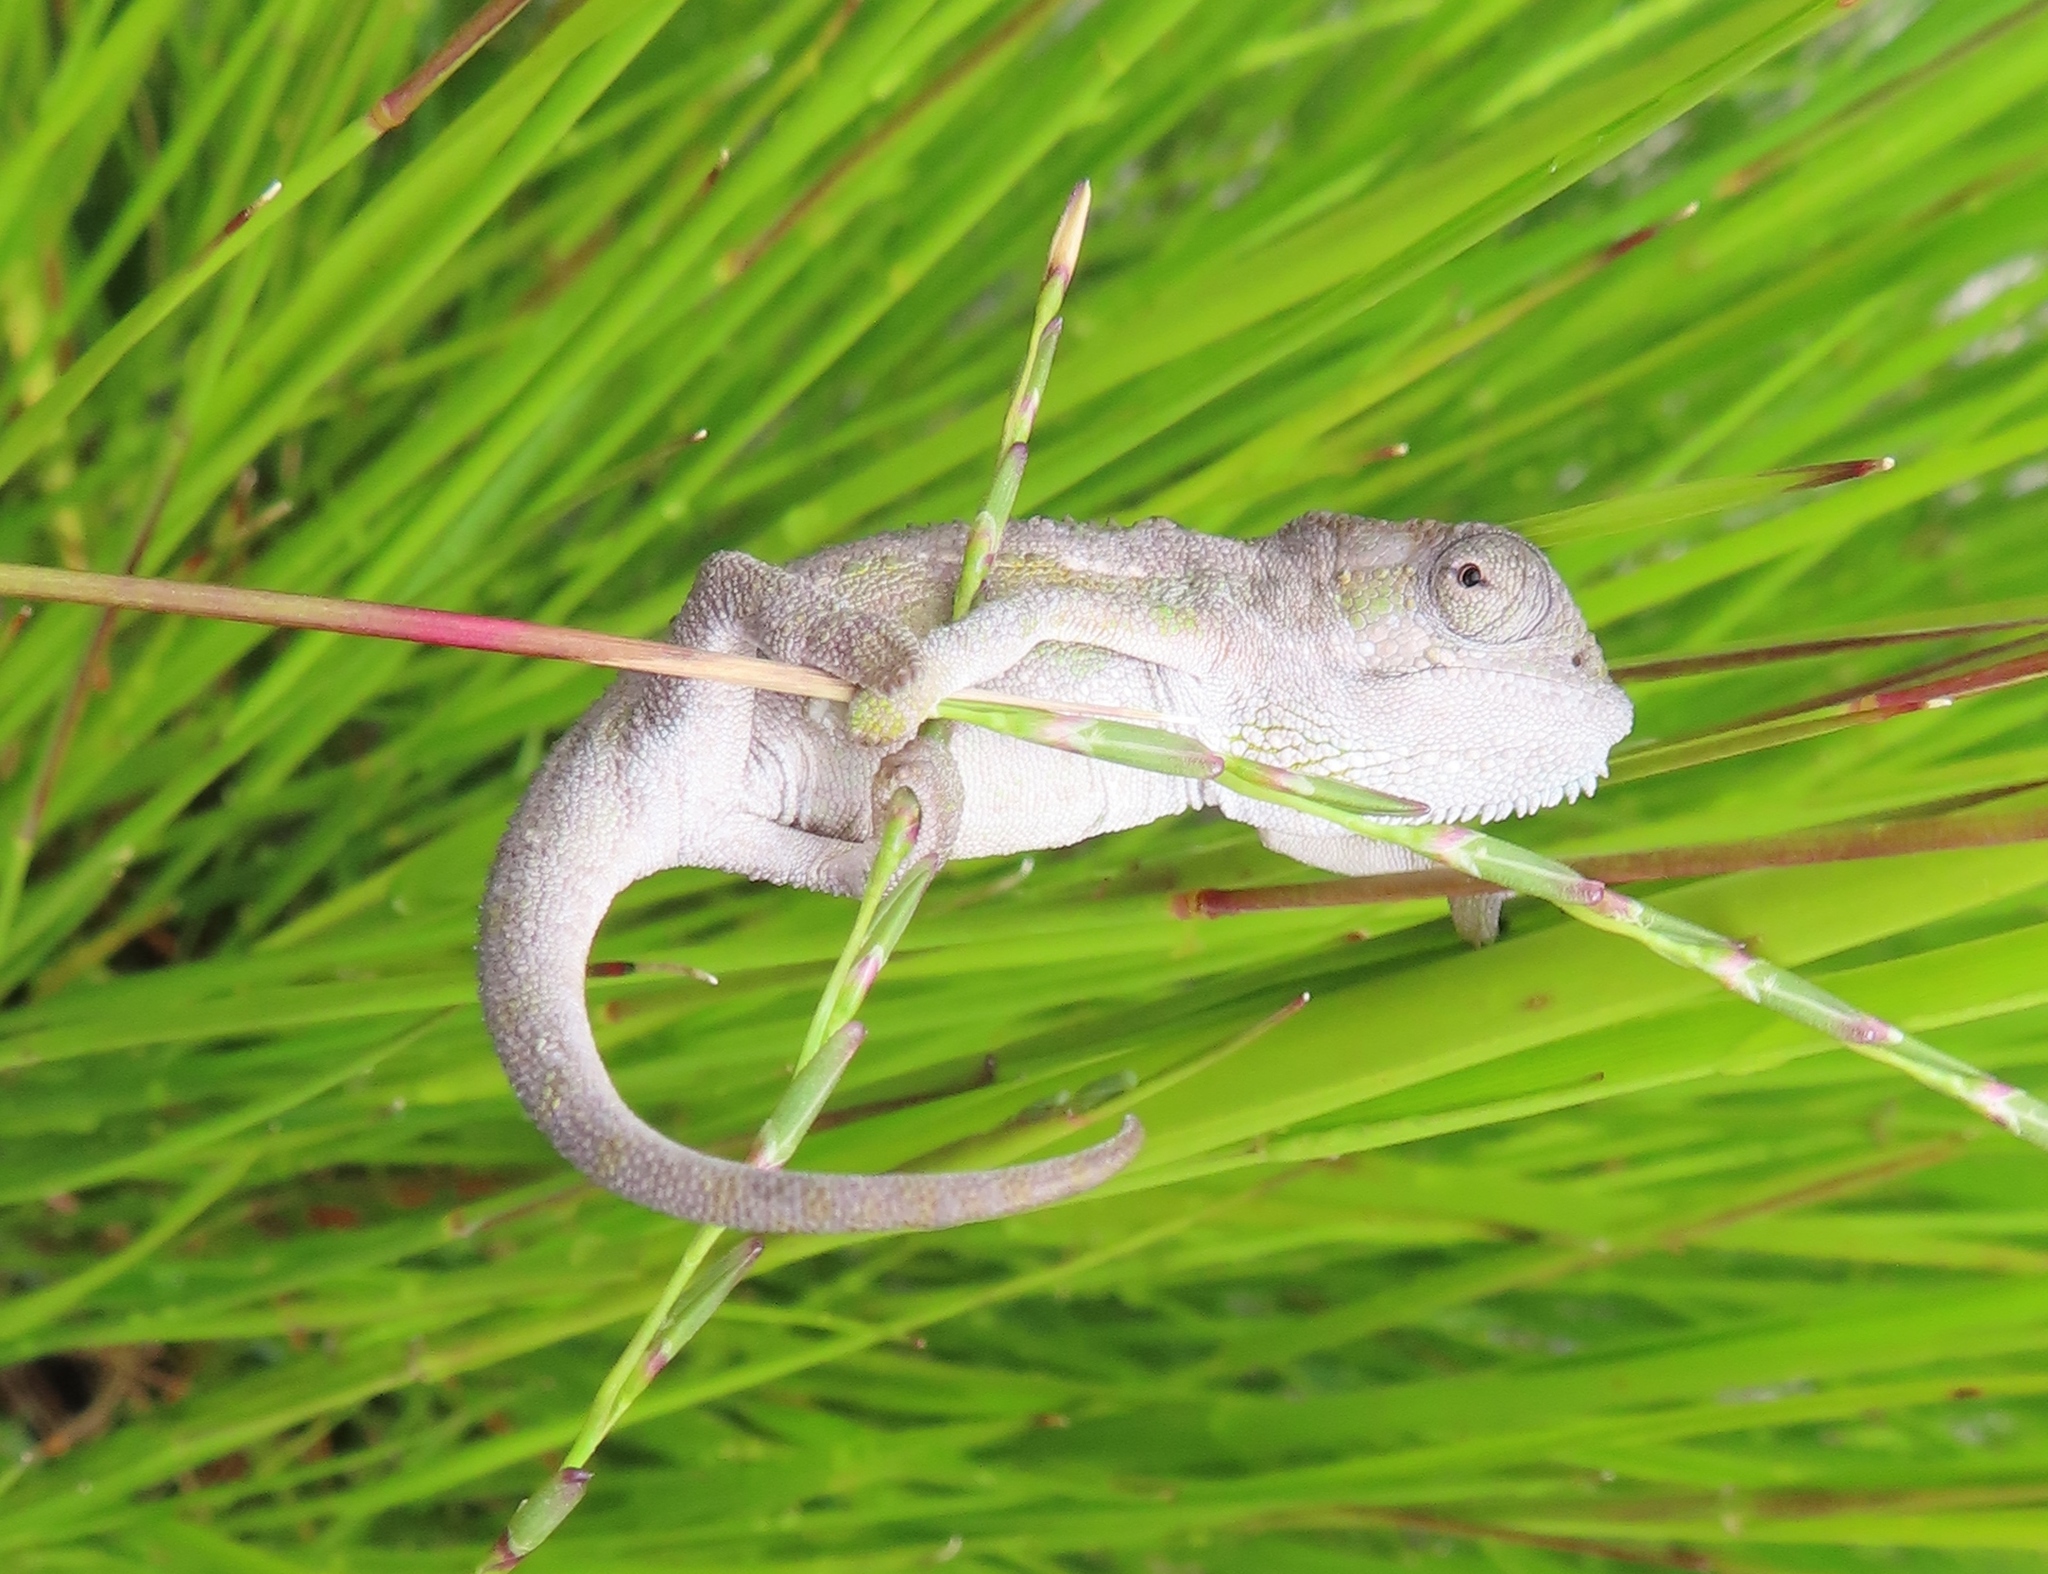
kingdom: Animalia
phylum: Chordata
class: Squamata
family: Chamaeleonidae
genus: Bradypodion
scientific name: Bradypodion pumilum
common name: Cape dwarf chameleon
